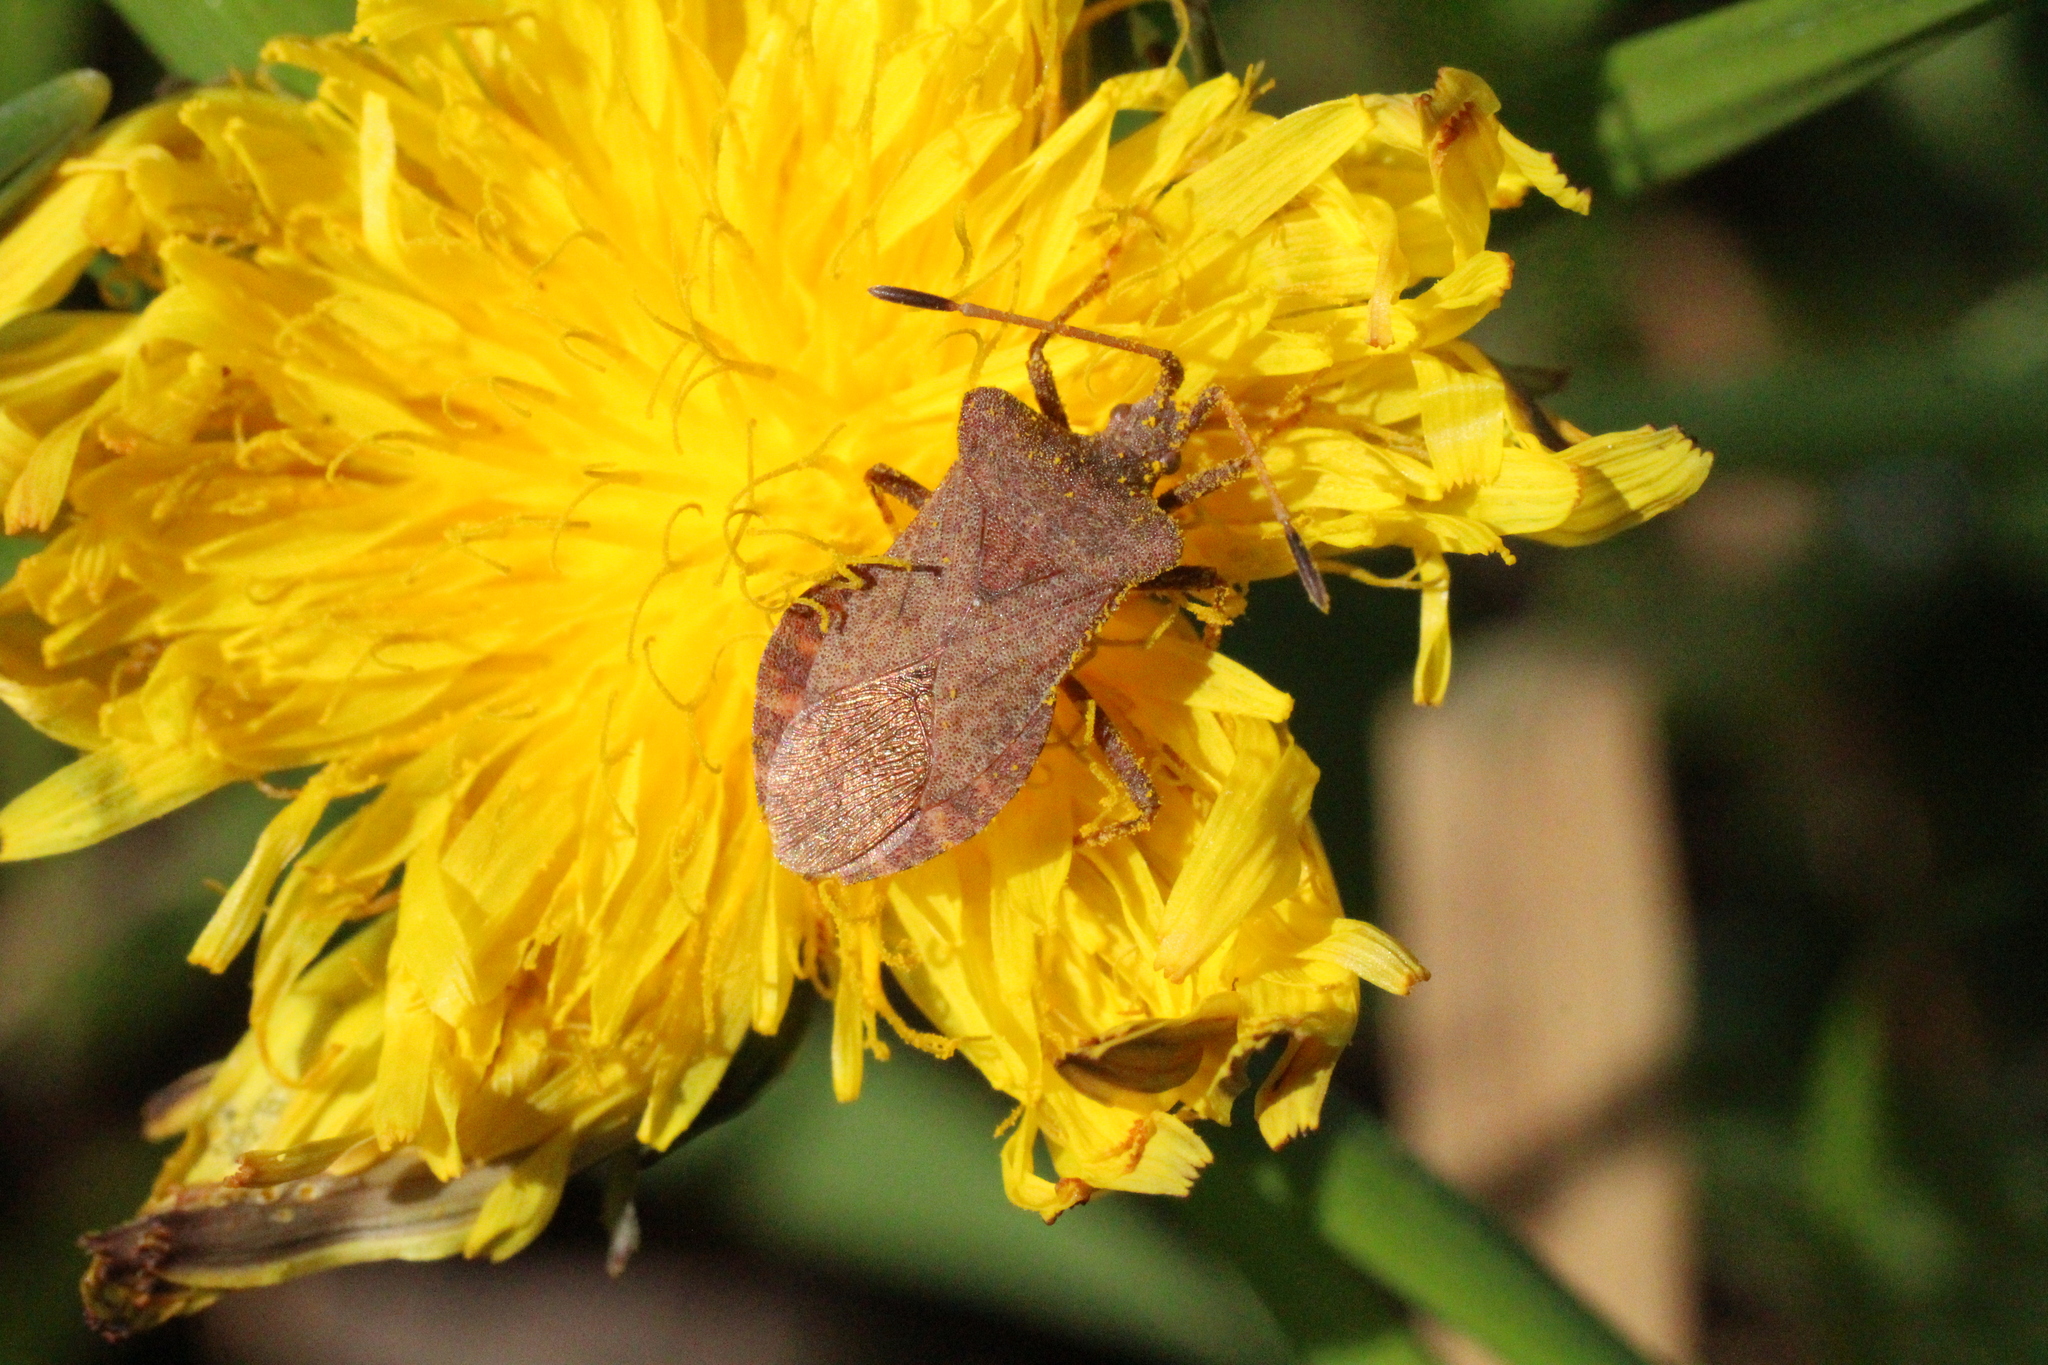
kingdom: Animalia
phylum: Arthropoda
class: Insecta
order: Hemiptera
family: Coreidae
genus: Coreus
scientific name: Coreus marginatus
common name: Dock bug
